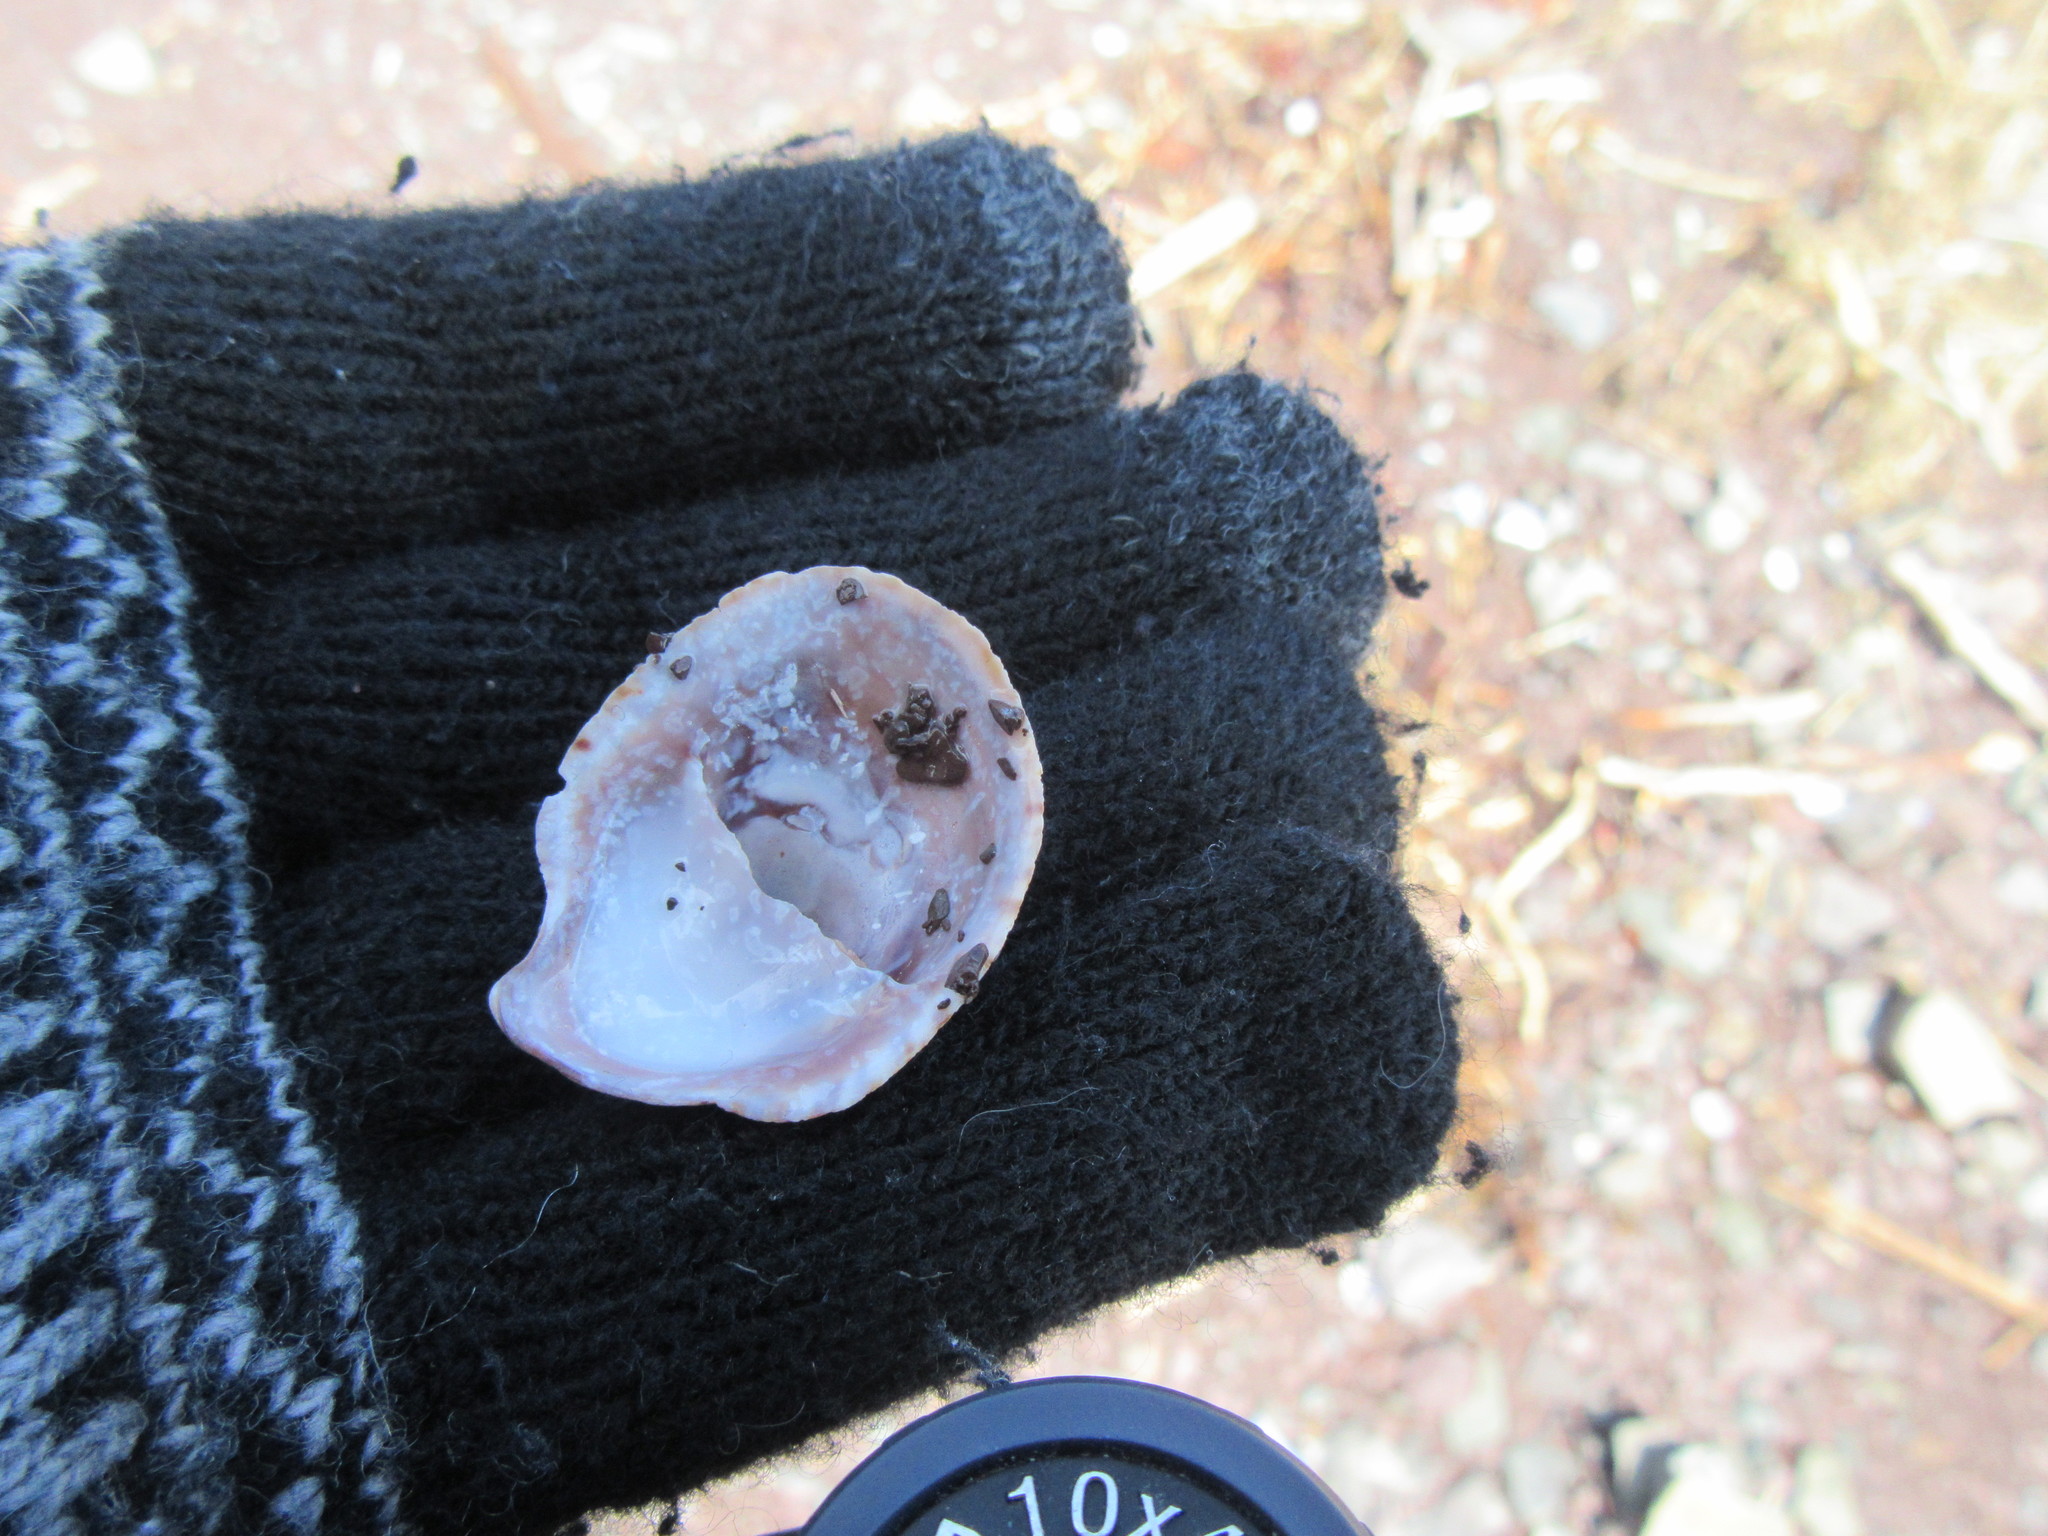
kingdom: Animalia
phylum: Mollusca
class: Gastropoda
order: Littorinimorpha
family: Calyptraeidae
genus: Crepidula
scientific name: Crepidula fornicata
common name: Slipper limpet
